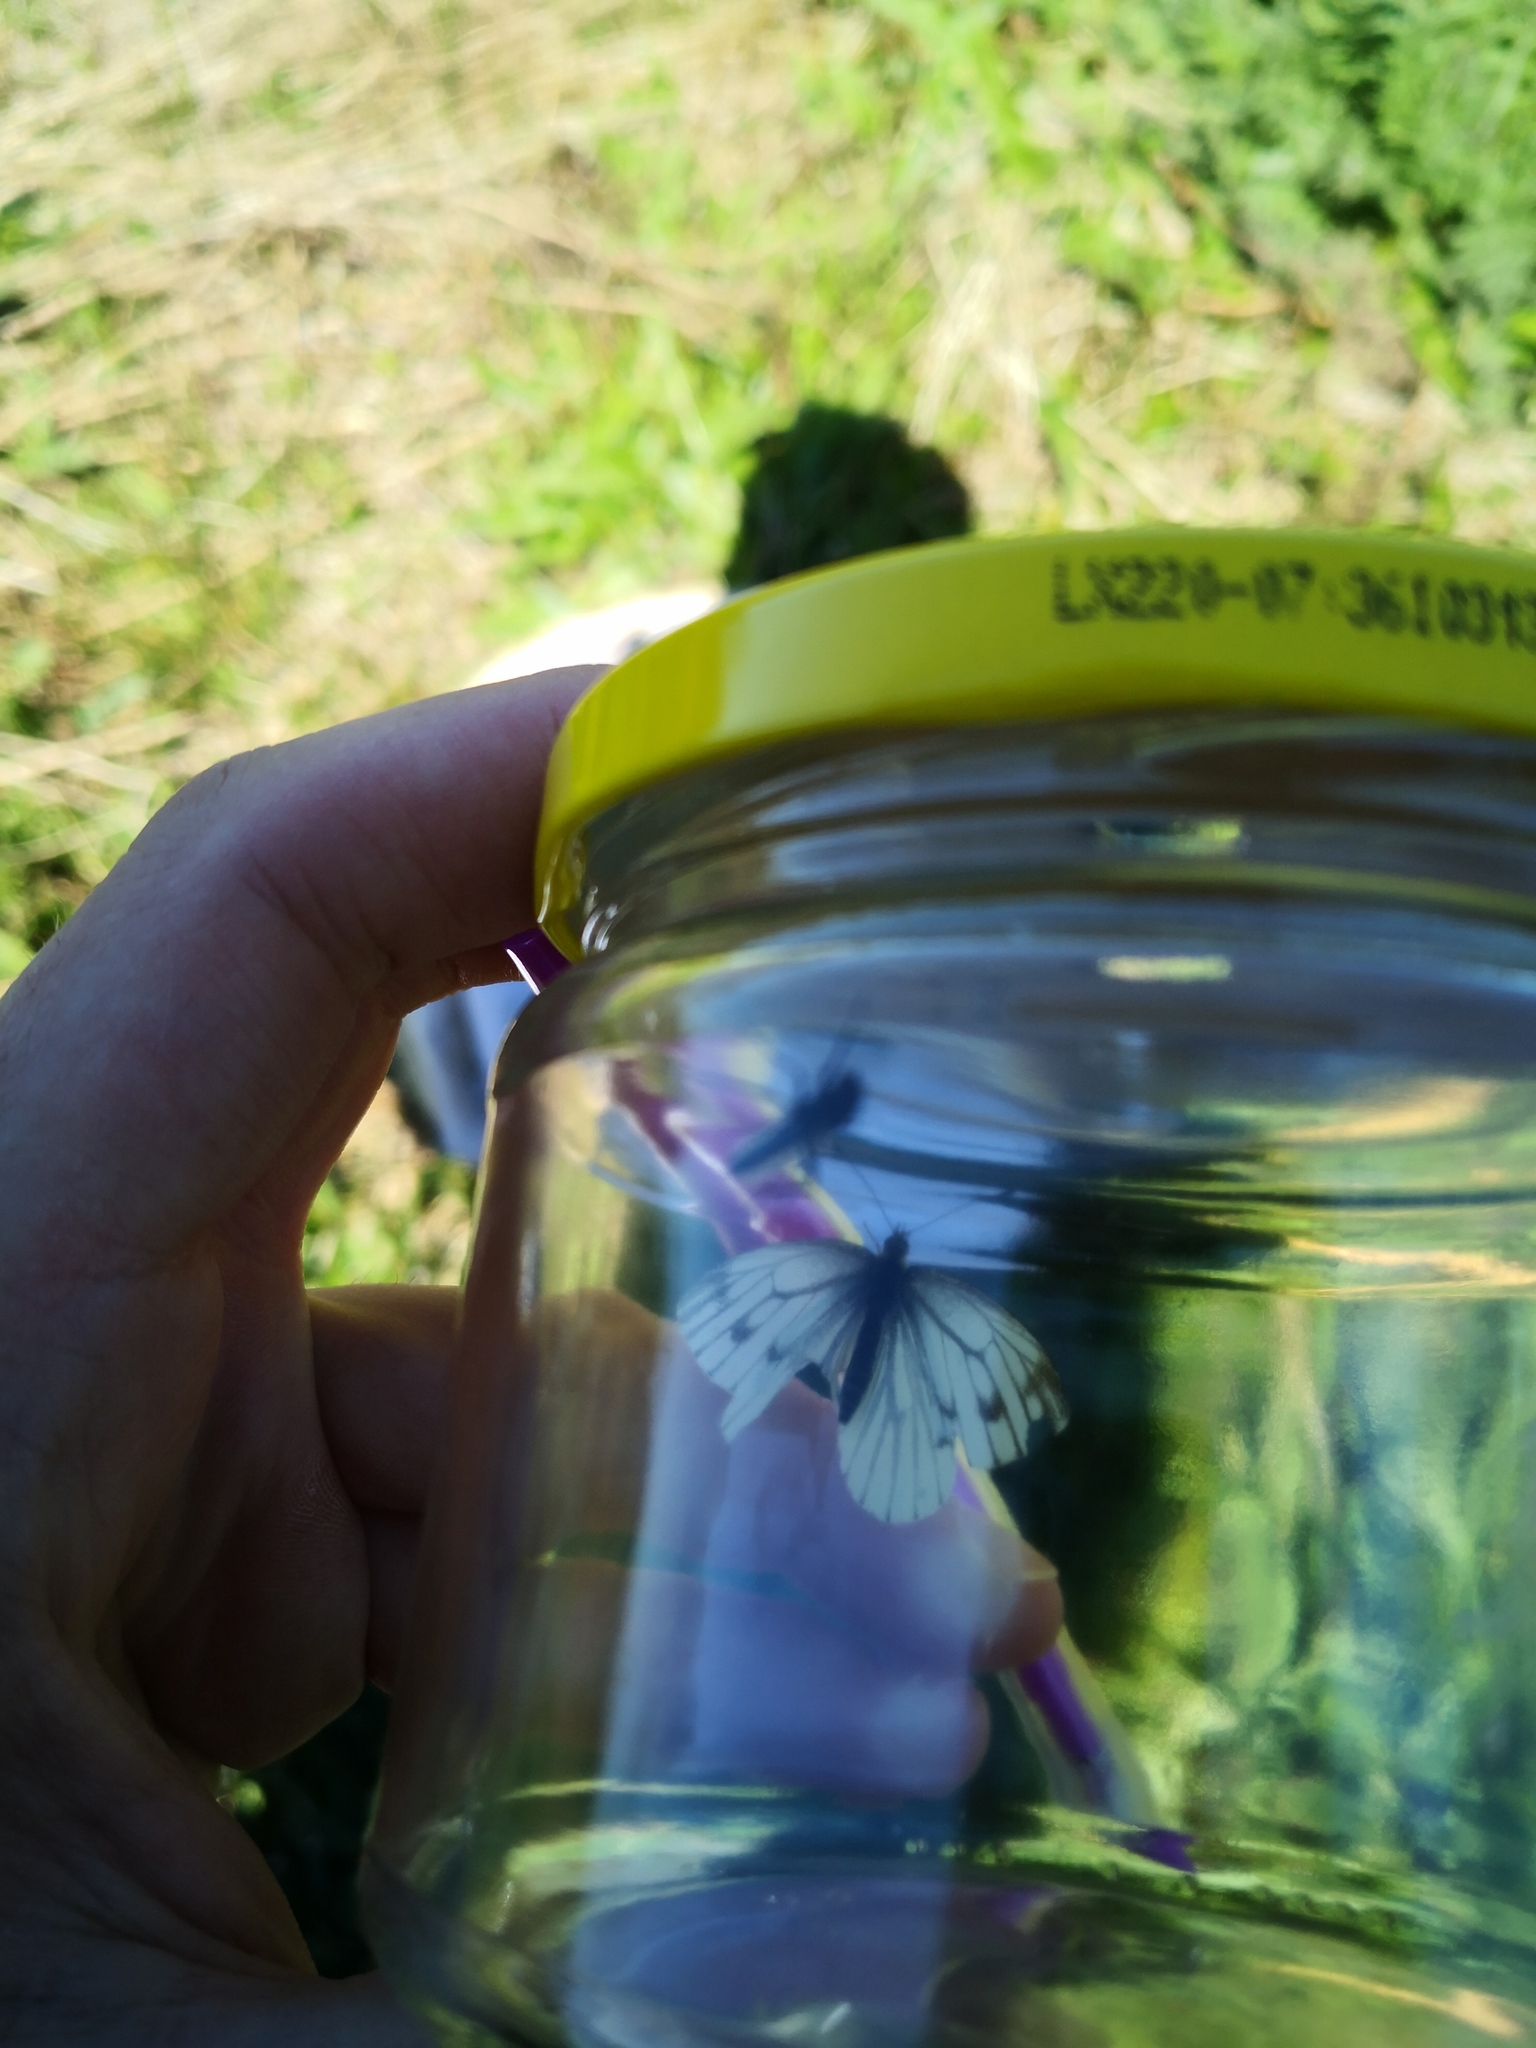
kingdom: Animalia
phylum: Arthropoda
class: Insecta
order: Lepidoptera
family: Pieridae
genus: Pieris
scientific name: Pieris napi
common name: Green-veined white
